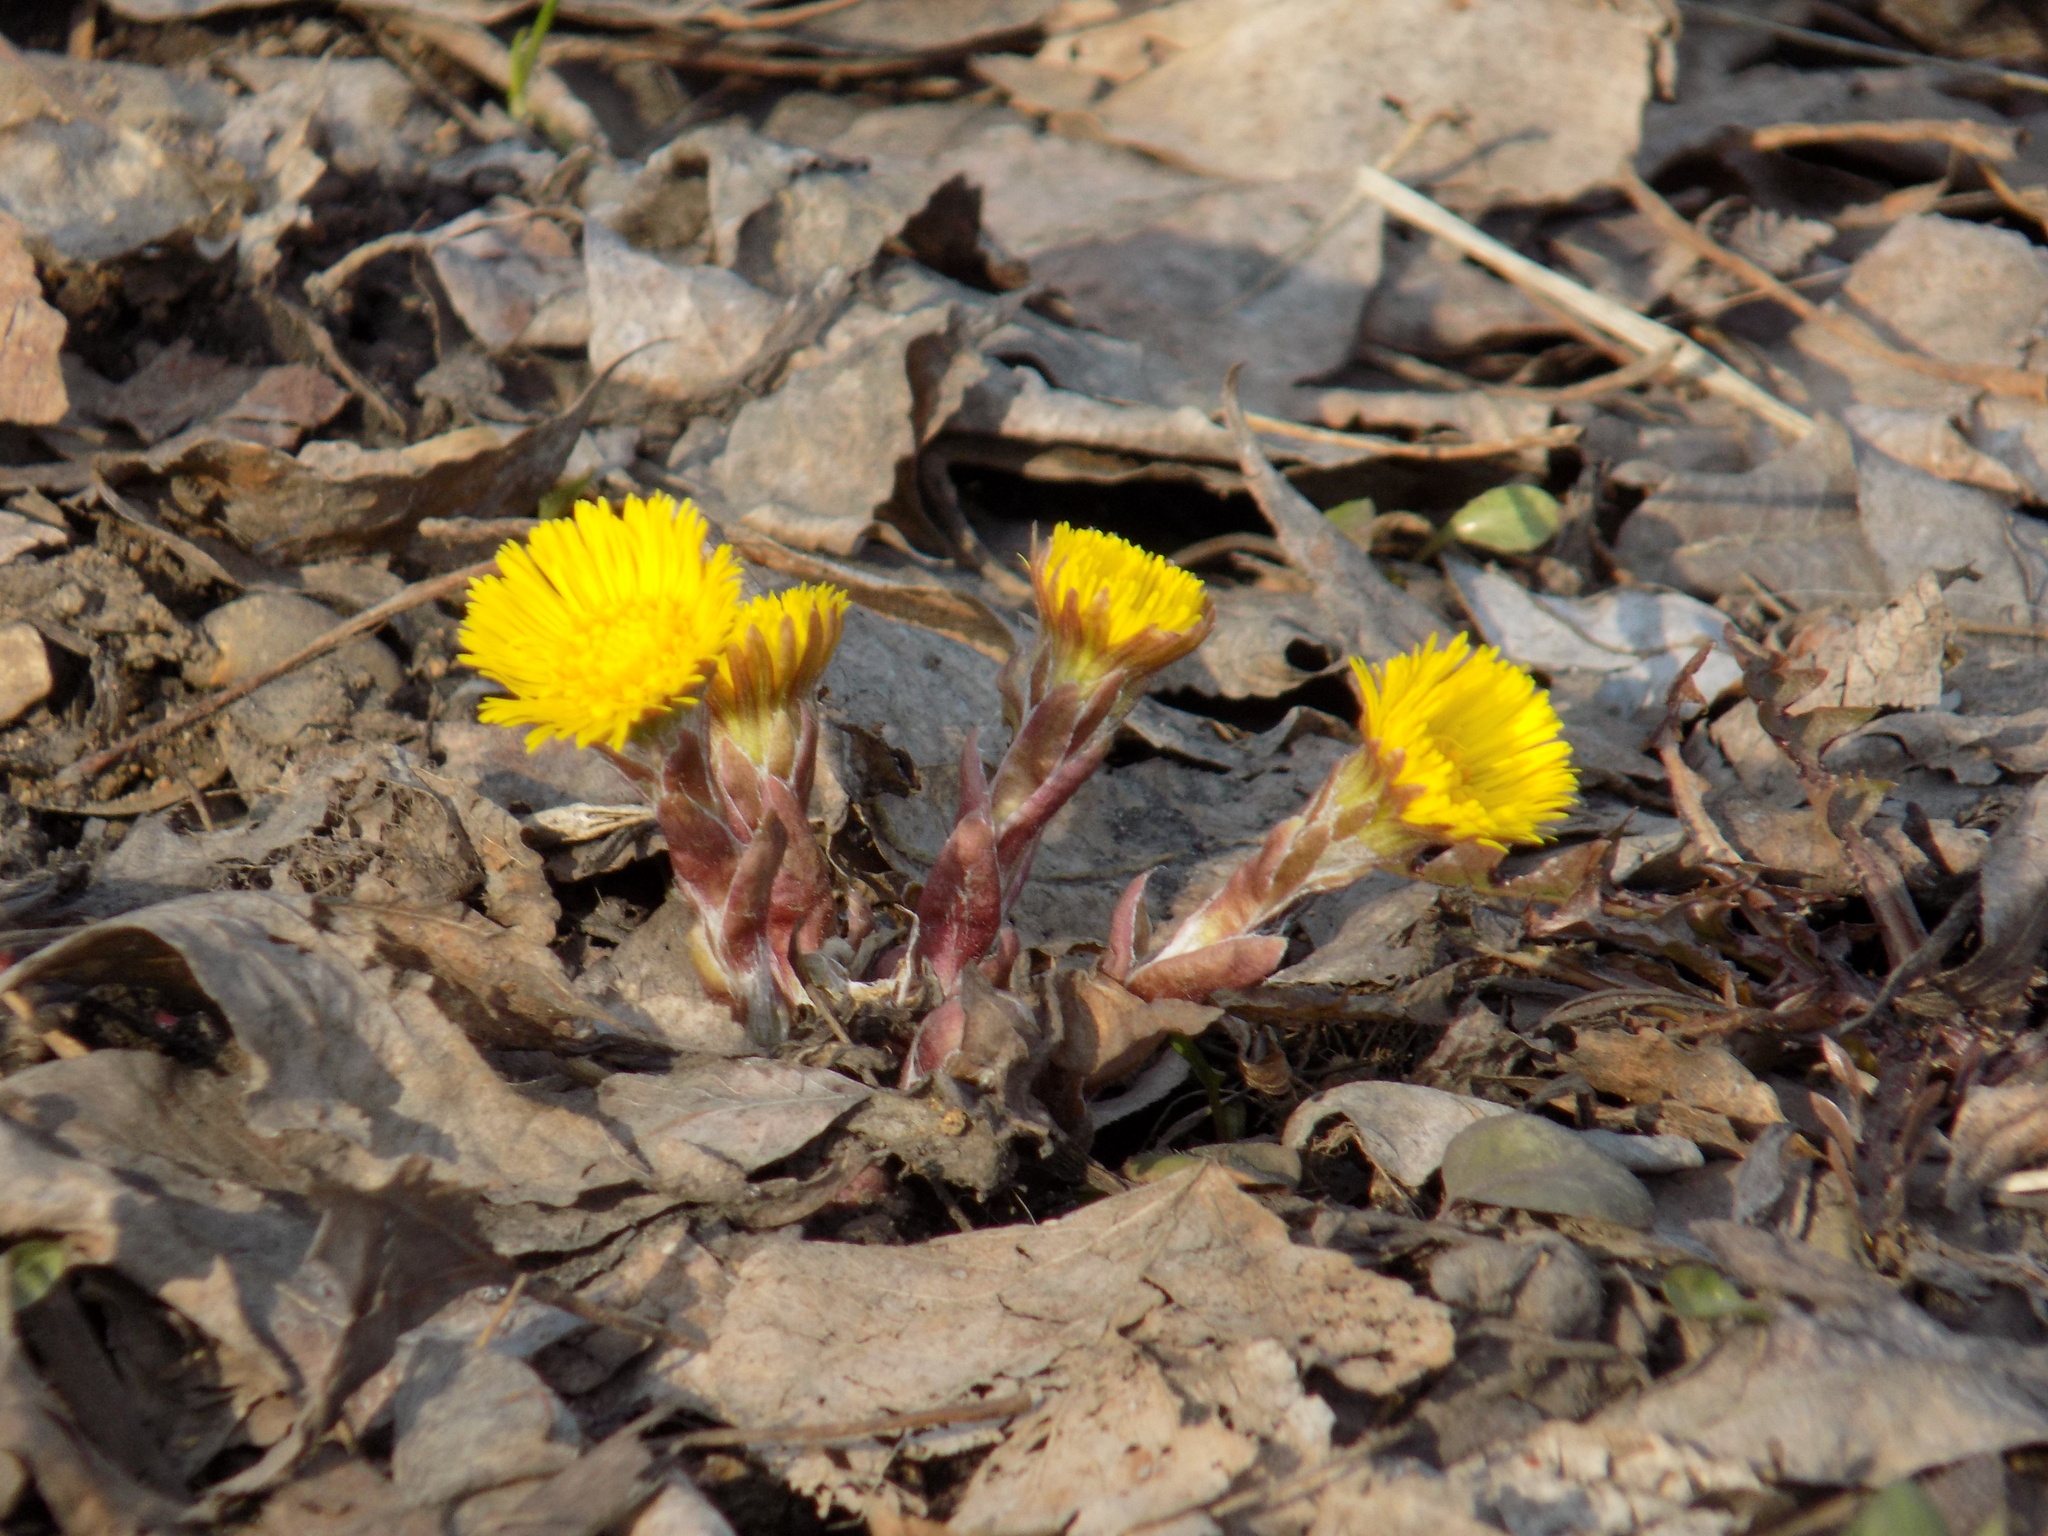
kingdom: Plantae
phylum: Tracheophyta
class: Magnoliopsida
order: Asterales
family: Asteraceae
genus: Tussilago
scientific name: Tussilago farfara
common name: Coltsfoot
